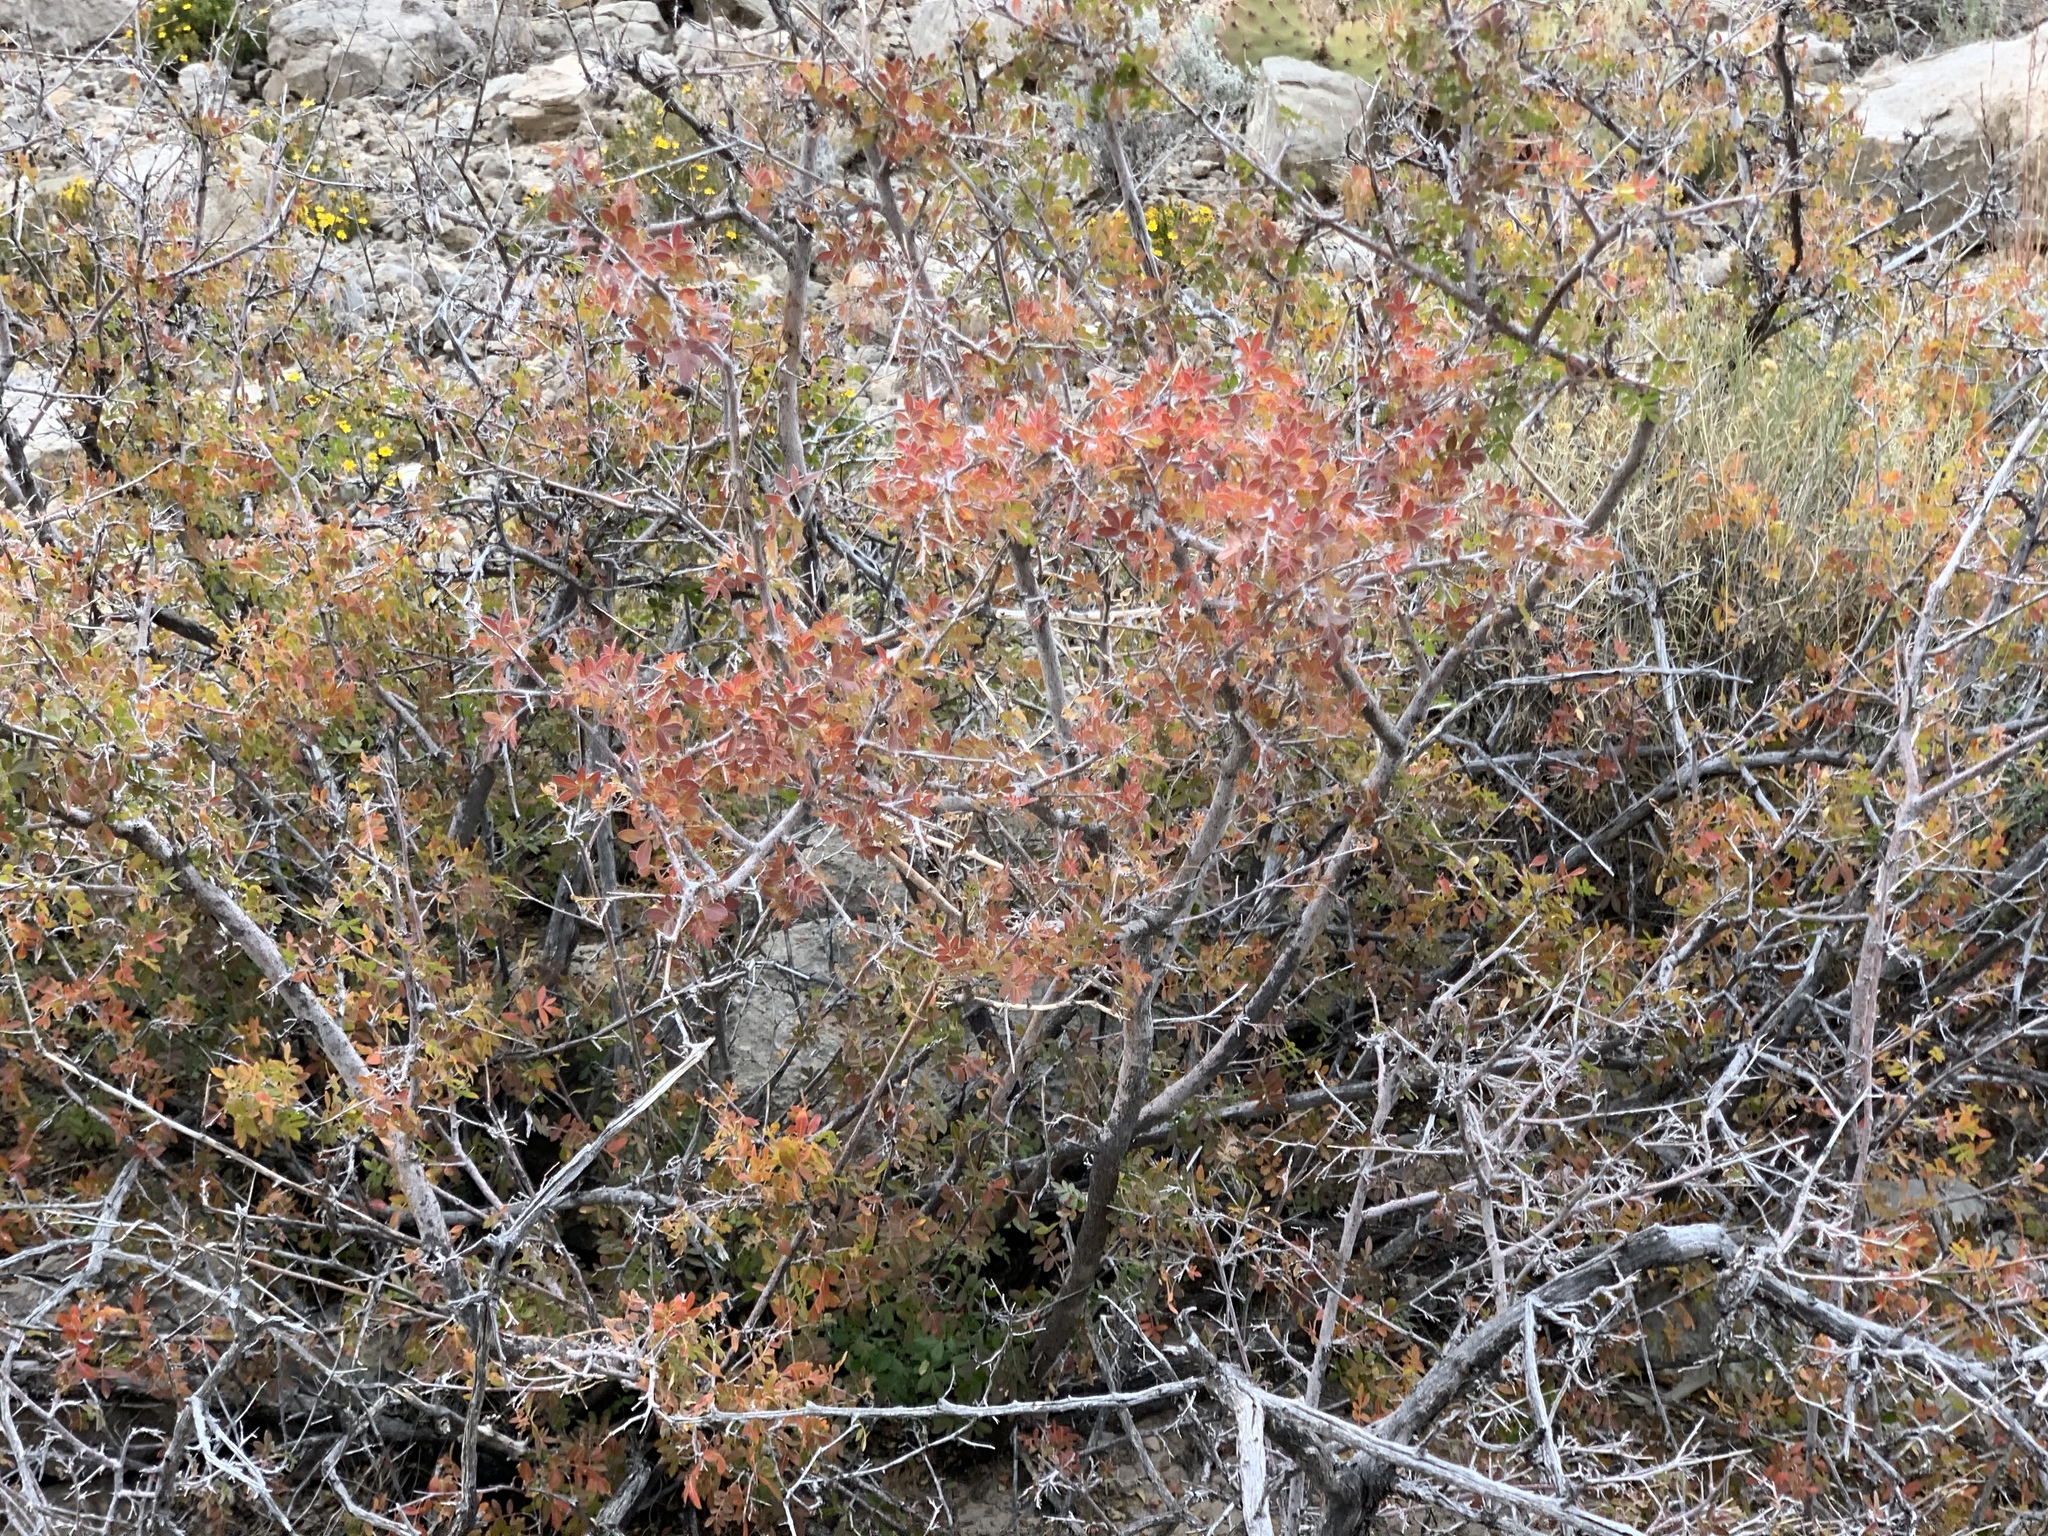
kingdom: Plantae
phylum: Tracheophyta
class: Magnoliopsida
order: Sapindales
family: Anacardiaceae
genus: Rhus
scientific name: Rhus microphylla
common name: Desert sumac
